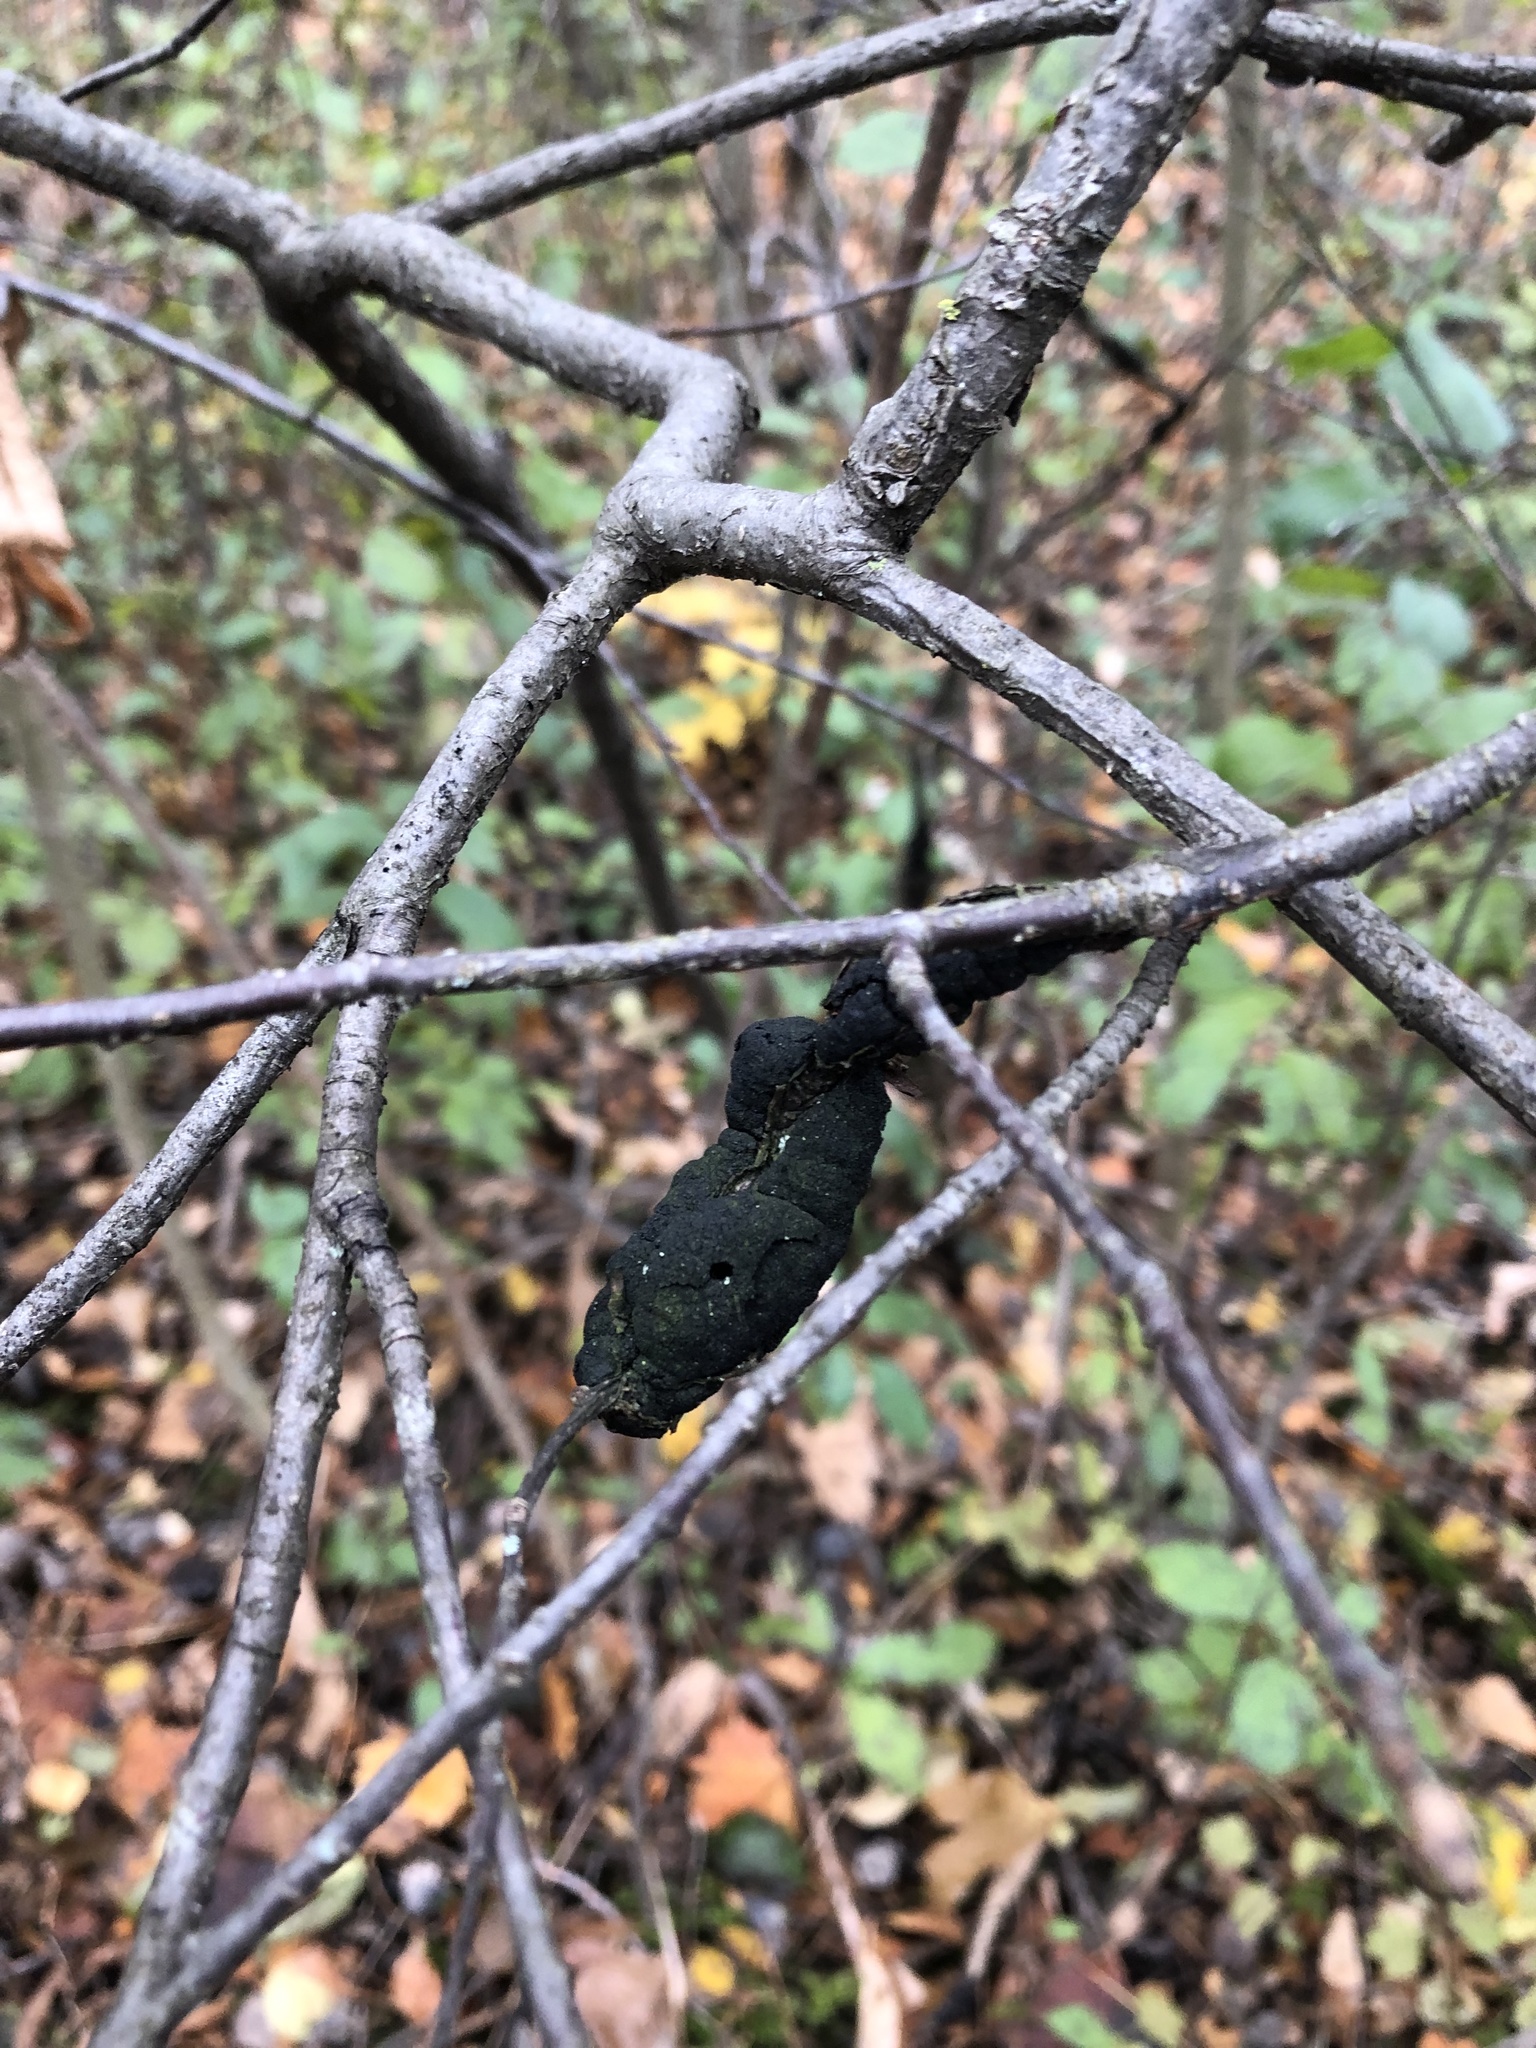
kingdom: Fungi
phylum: Ascomycota
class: Dothideomycetes
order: Venturiales
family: Venturiaceae
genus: Apiosporina
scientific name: Apiosporina morbosa
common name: Black knot
